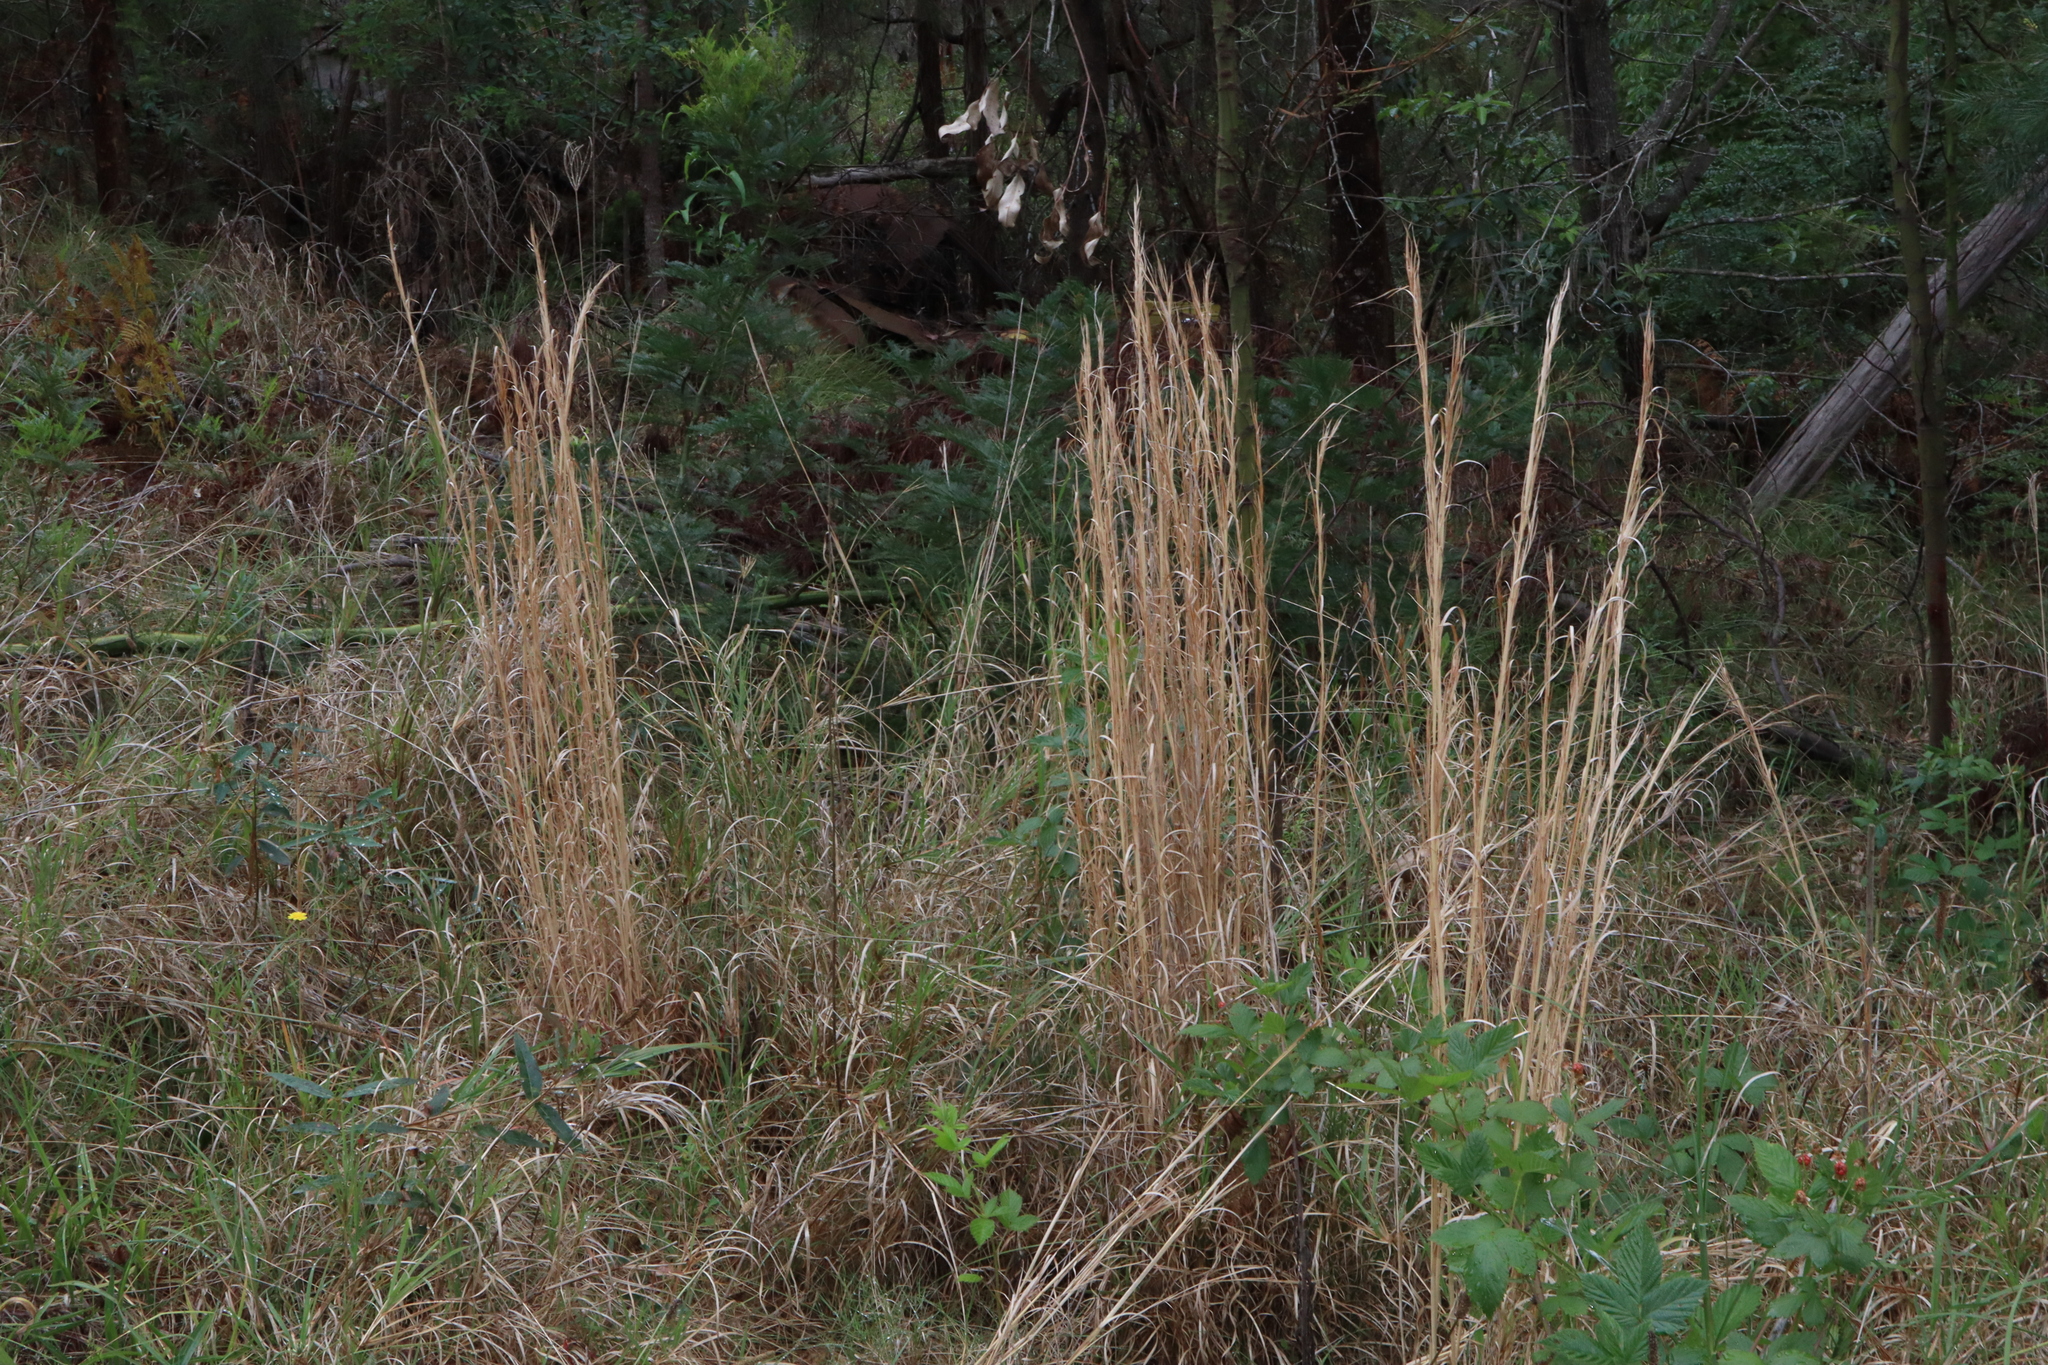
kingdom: Plantae
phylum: Tracheophyta
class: Liliopsida
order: Poales
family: Poaceae
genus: Andropogon
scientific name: Andropogon virginicus
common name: Broomsedge bluestem
